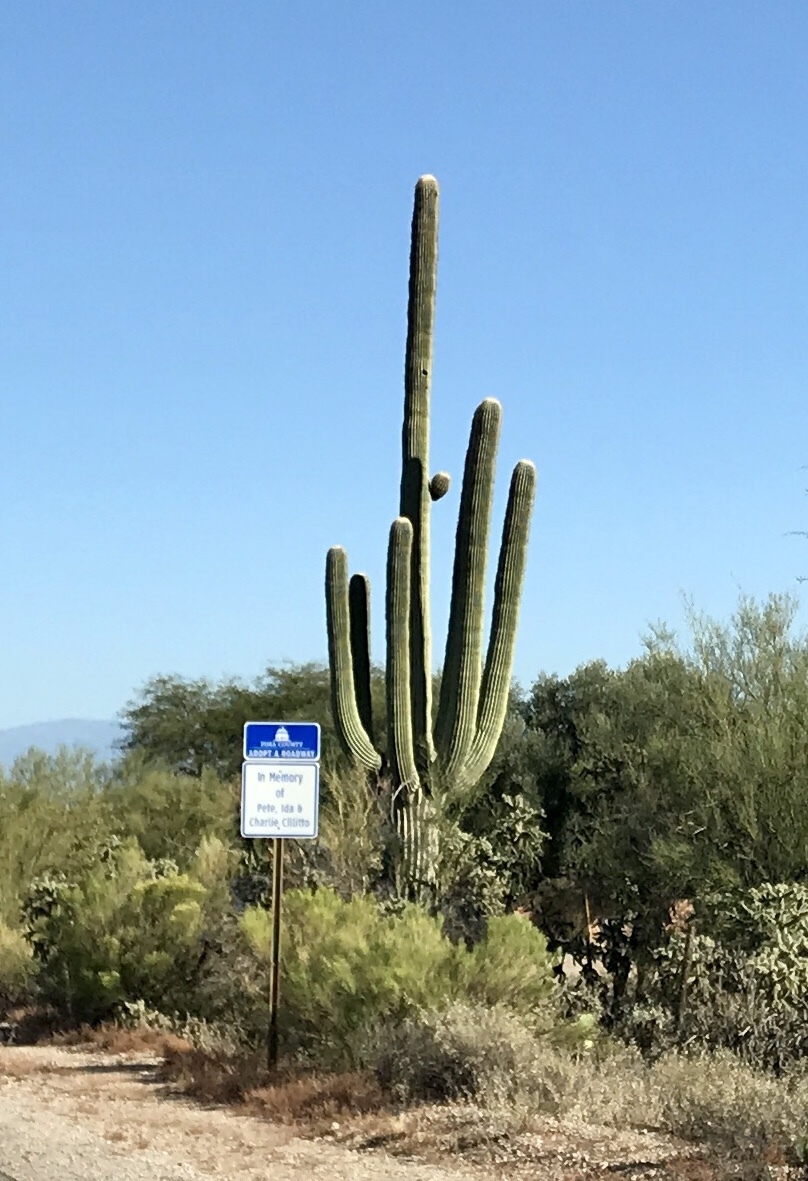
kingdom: Plantae
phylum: Tracheophyta
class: Magnoliopsida
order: Caryophyllales
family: Cactaceae
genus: Carnegiea
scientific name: Carnegiea gigantea
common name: Saguaro
